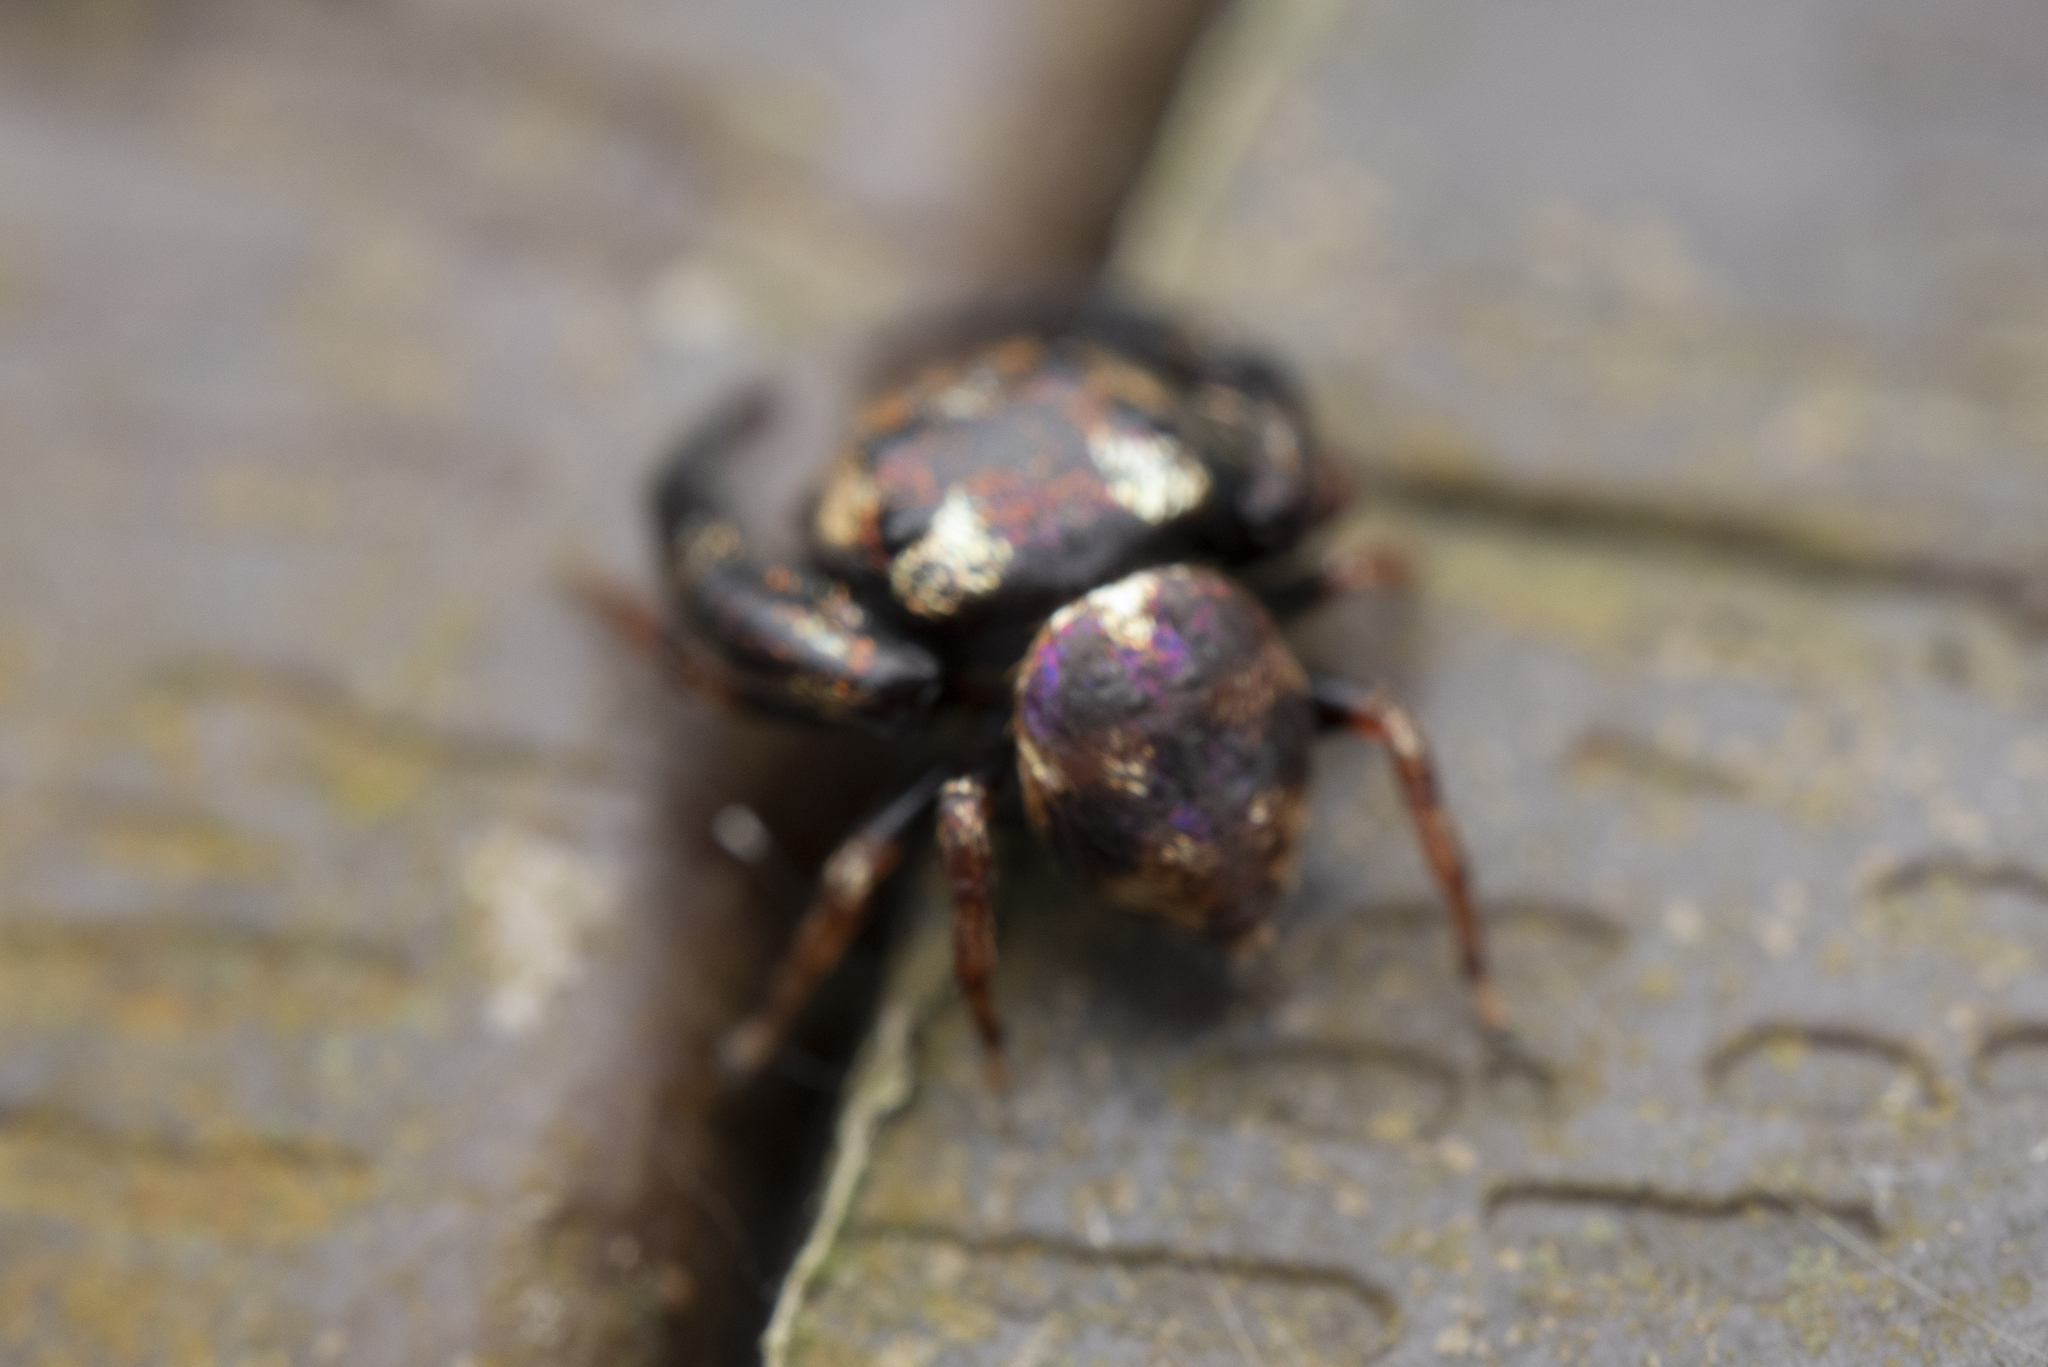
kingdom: Animalia
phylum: Arthropoda
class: Arachnida
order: Araneae
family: Salticidae
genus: Irura
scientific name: Irura bidenticulata
